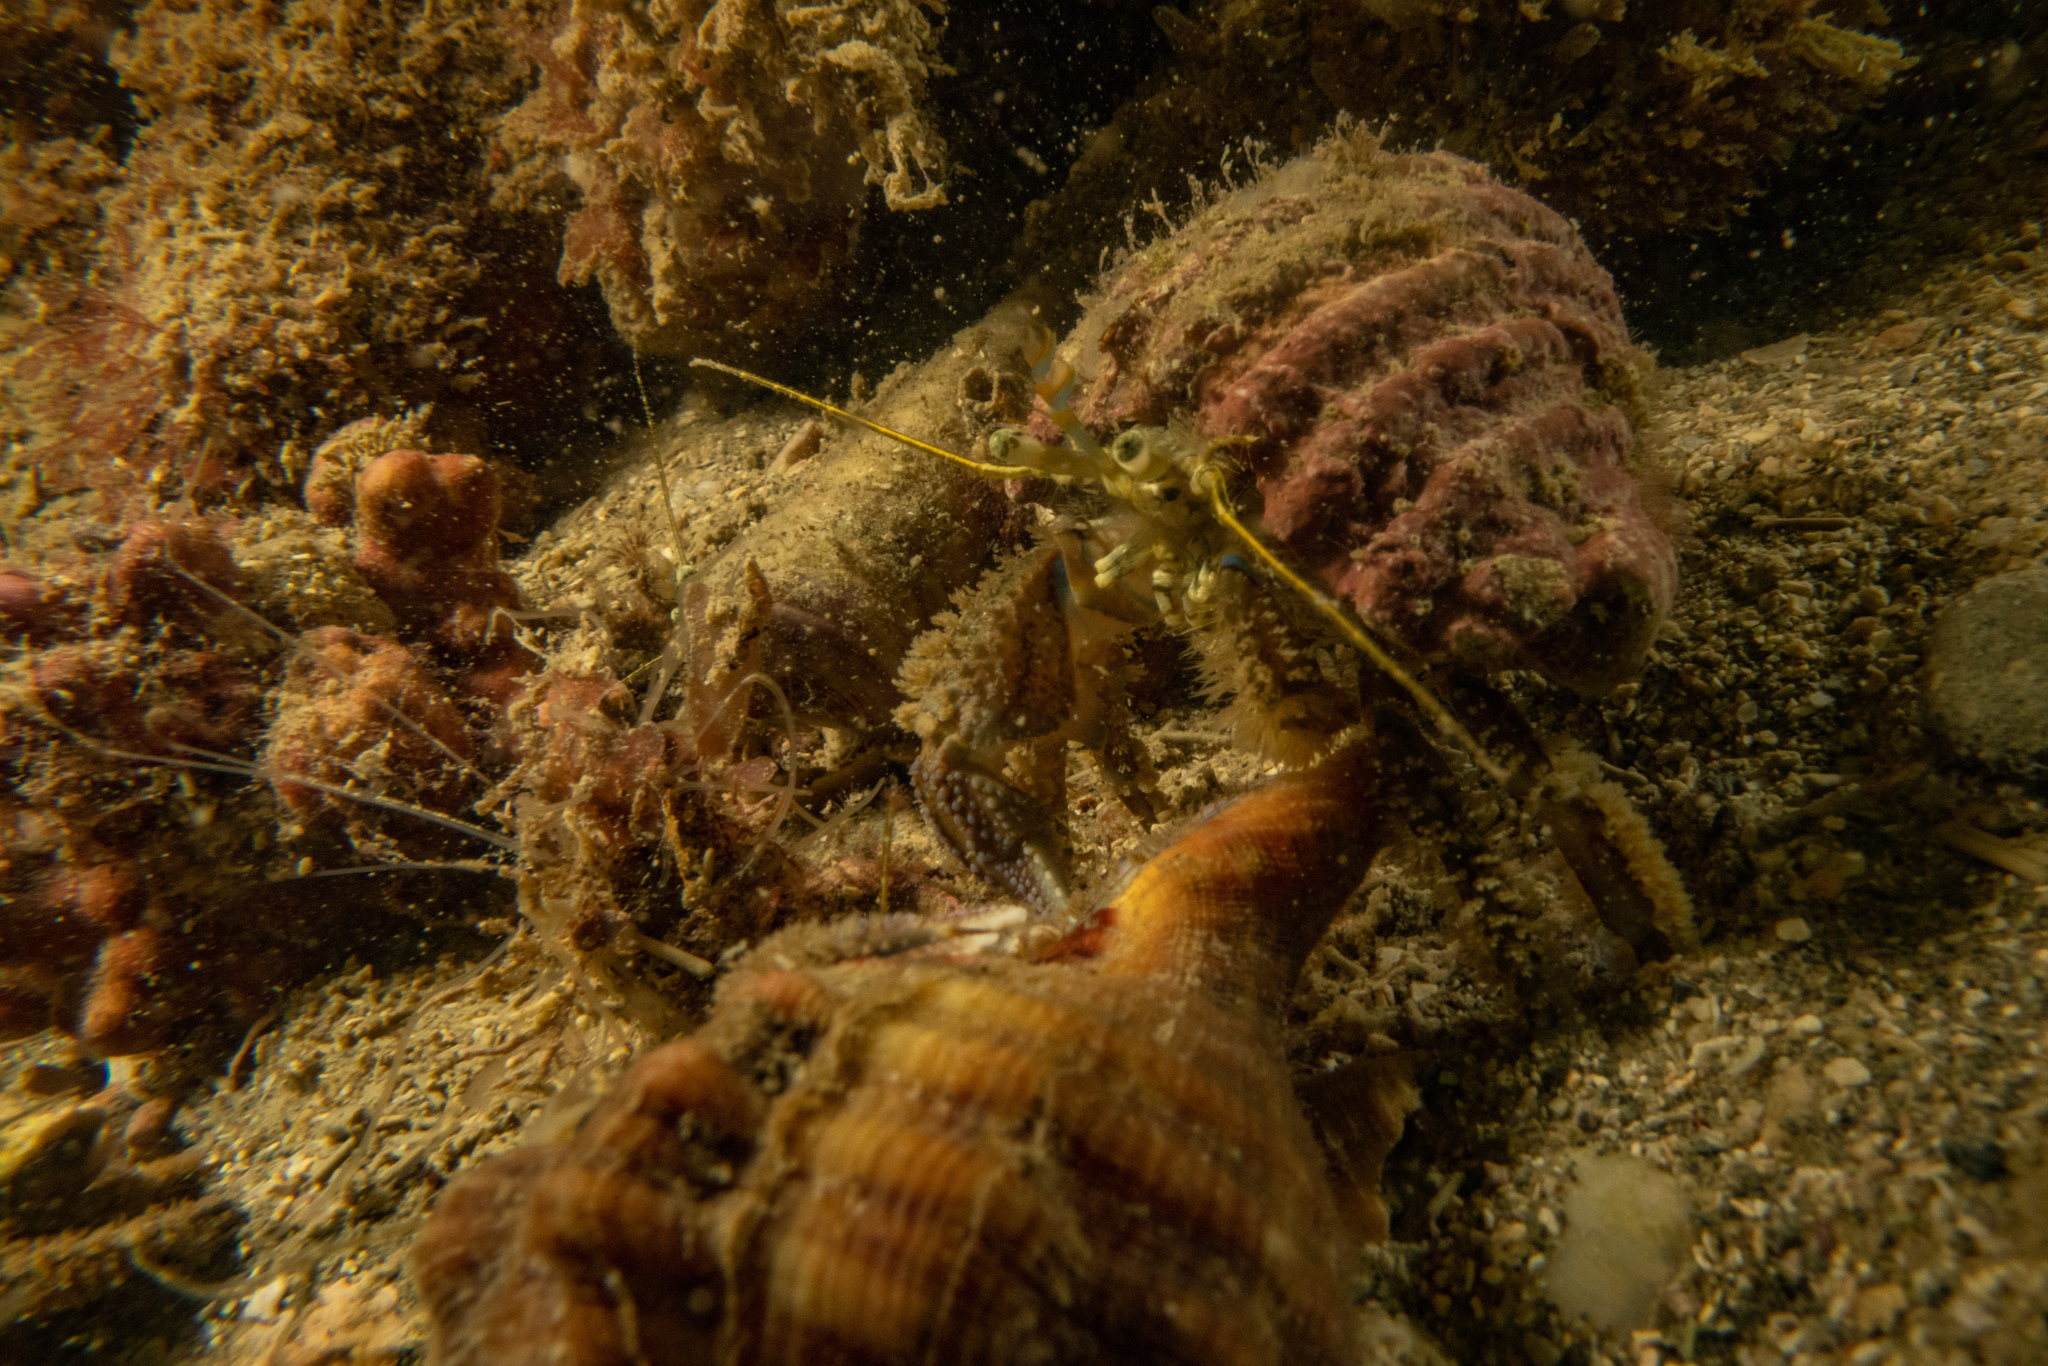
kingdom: Animalia
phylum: Arthropoda
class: Malacostraca
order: Decapoda
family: Paguridae
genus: Pagurus
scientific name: Pagurus novizealandiae
